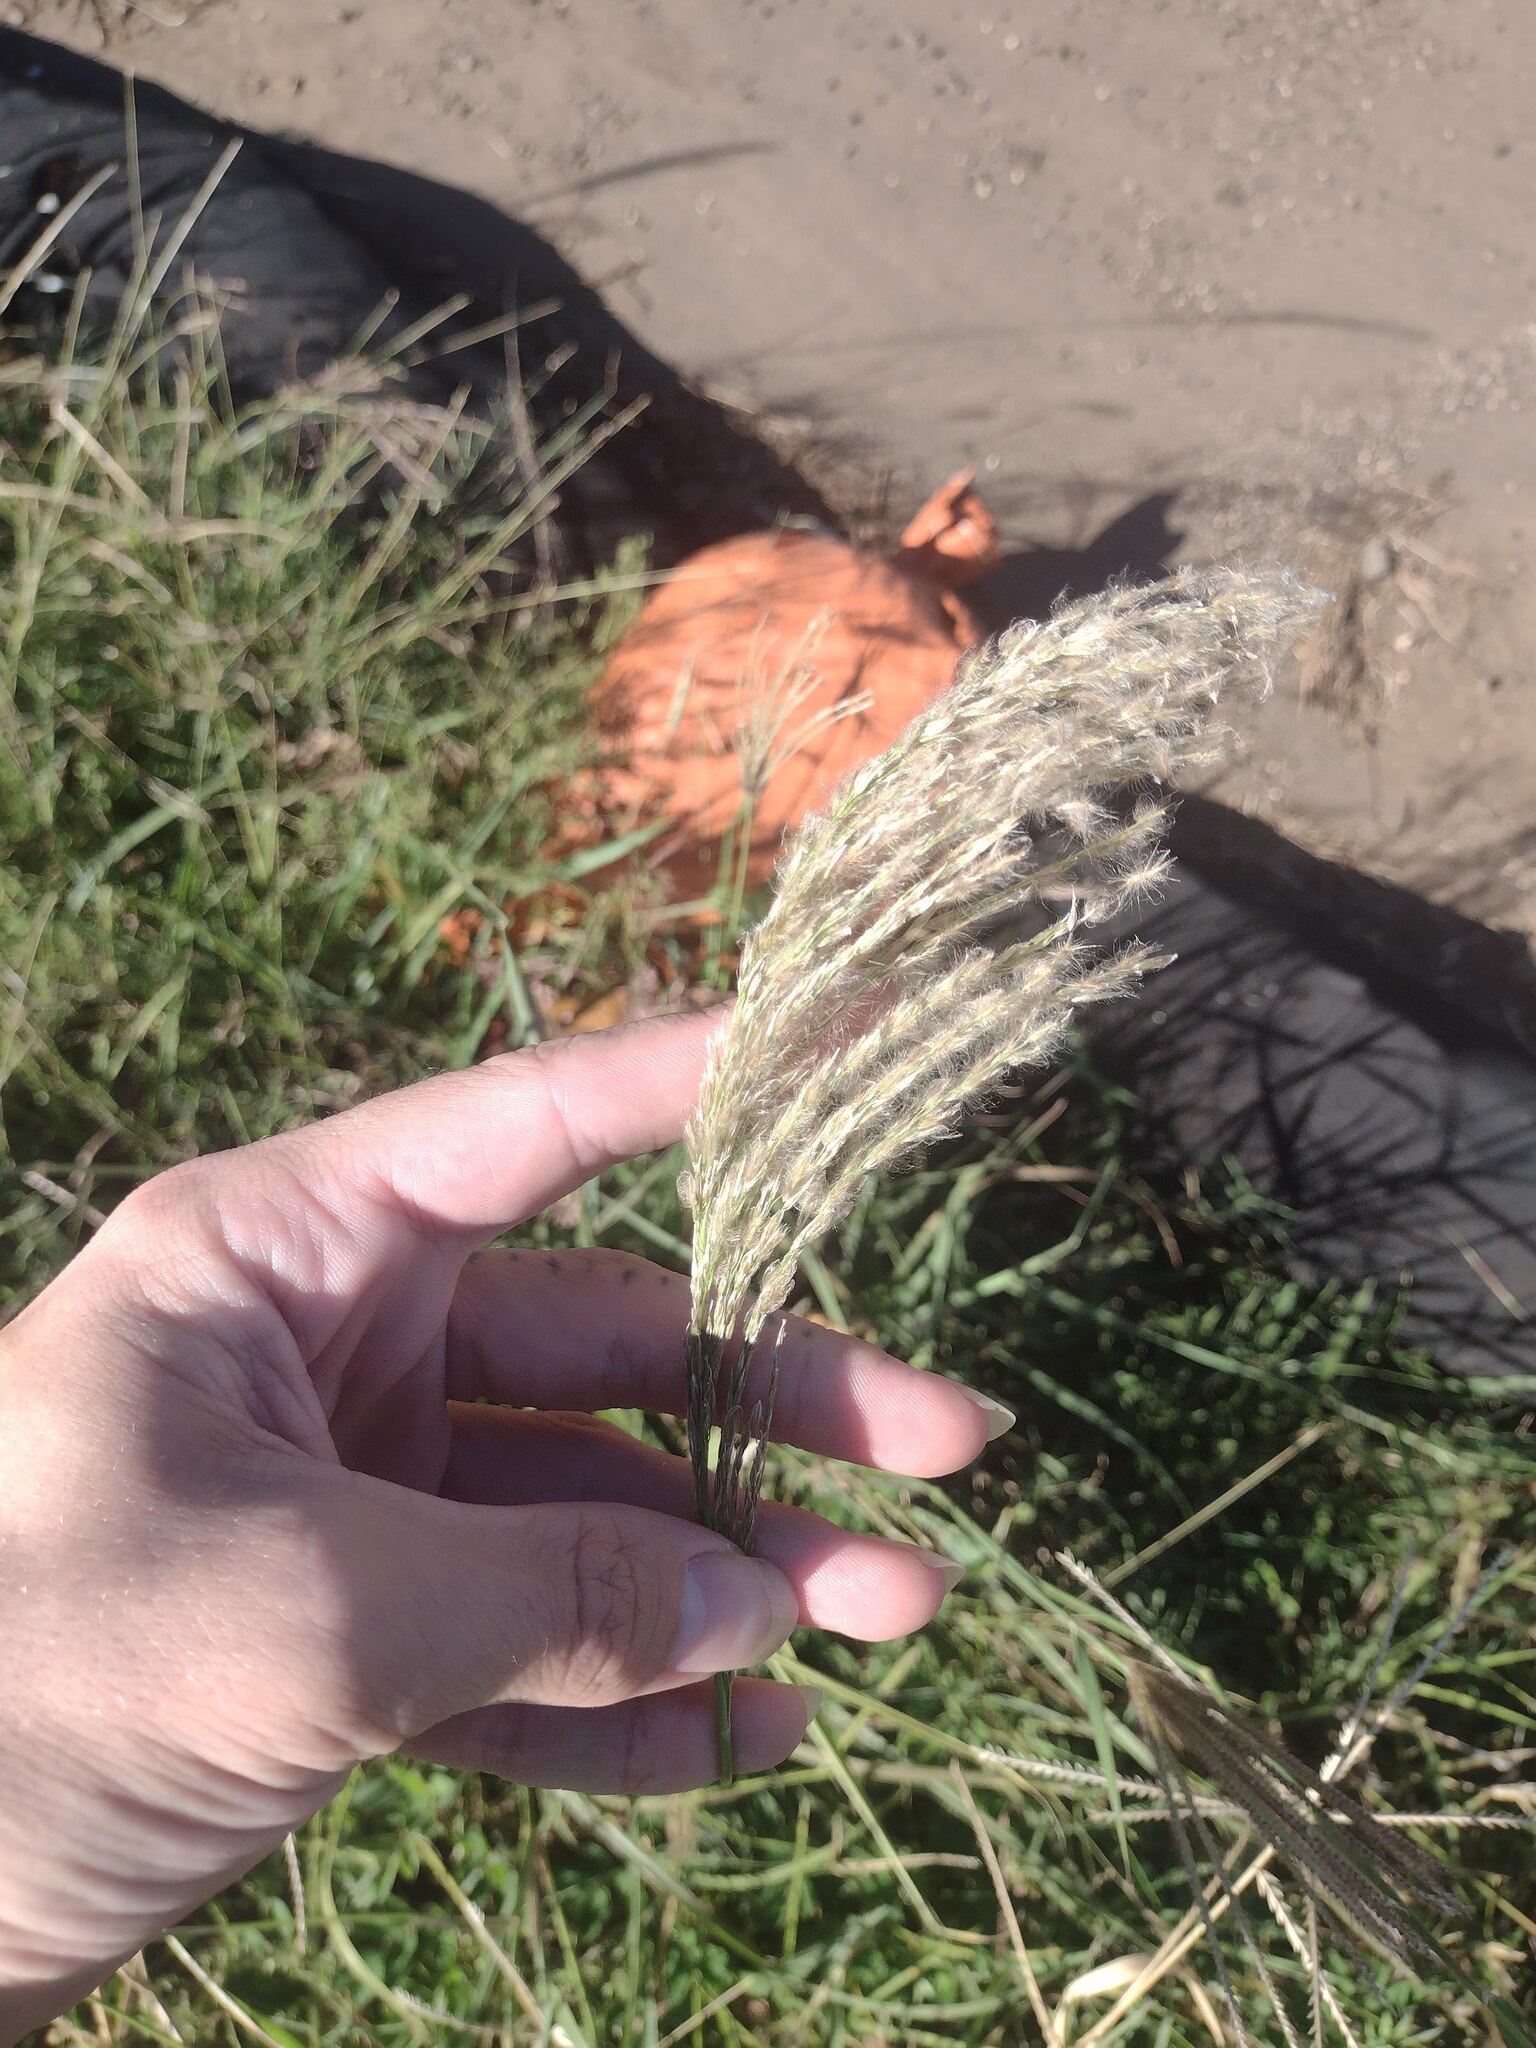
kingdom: Plantae
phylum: Tracheophyta
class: Liliopsida
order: Poales
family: Poaceae
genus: Digitaria
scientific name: Digitaria insularis
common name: Sourgrass
